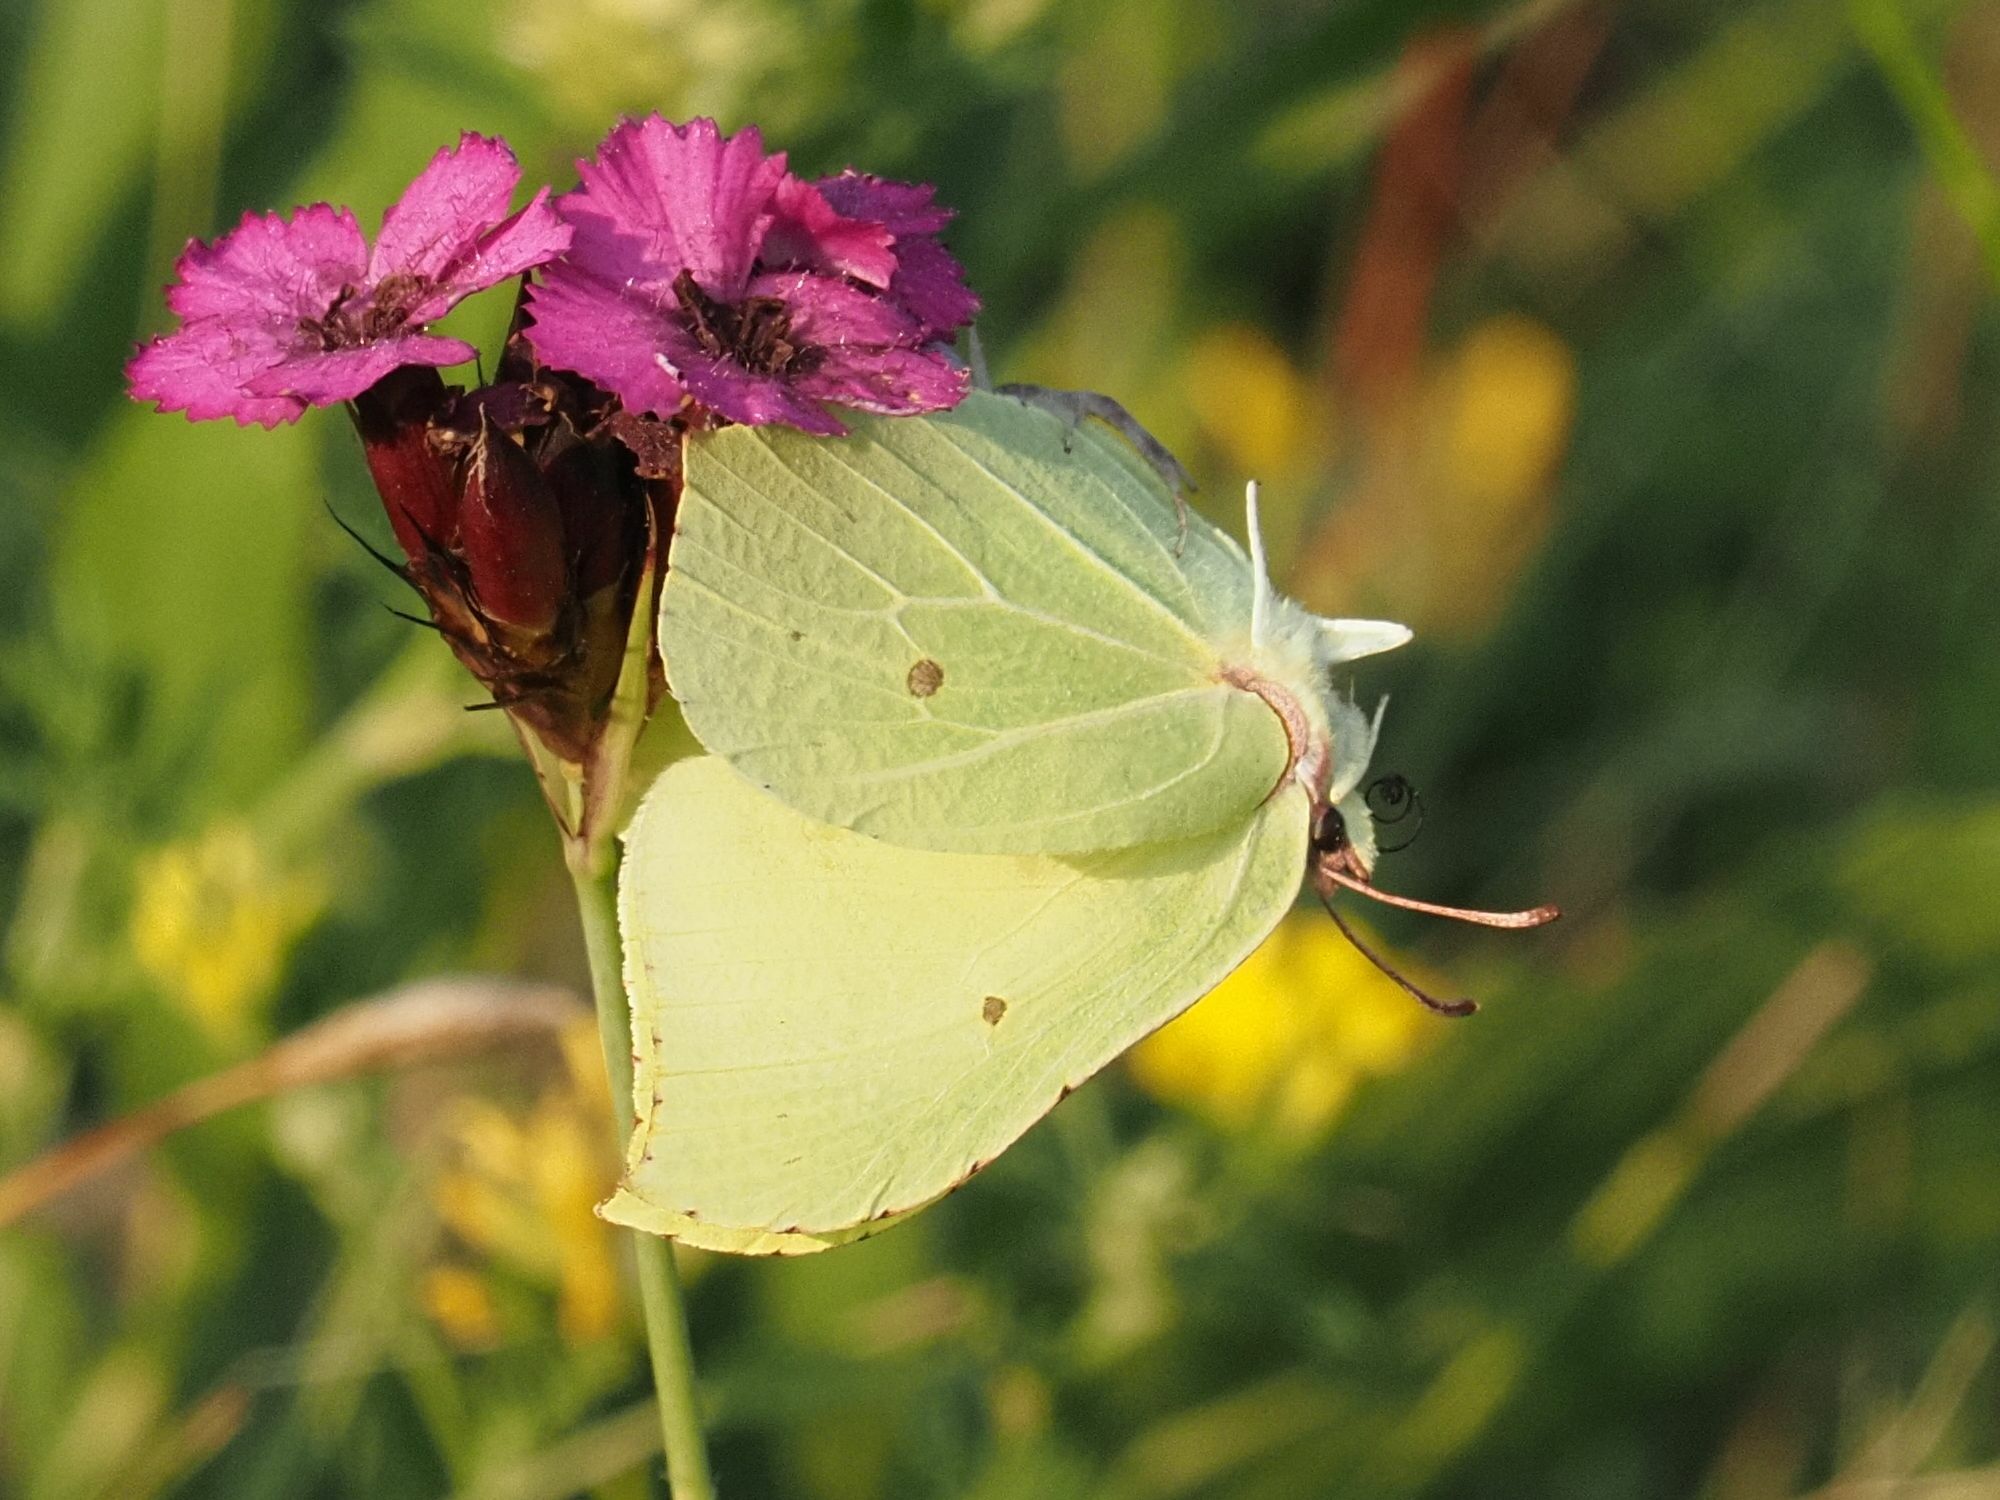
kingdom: Animalia
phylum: Arthropoda
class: Insecta
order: Lepidoptera
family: Pieridae
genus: Gonepteryx
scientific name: Gonepteryx rhamni
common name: Brimstone
